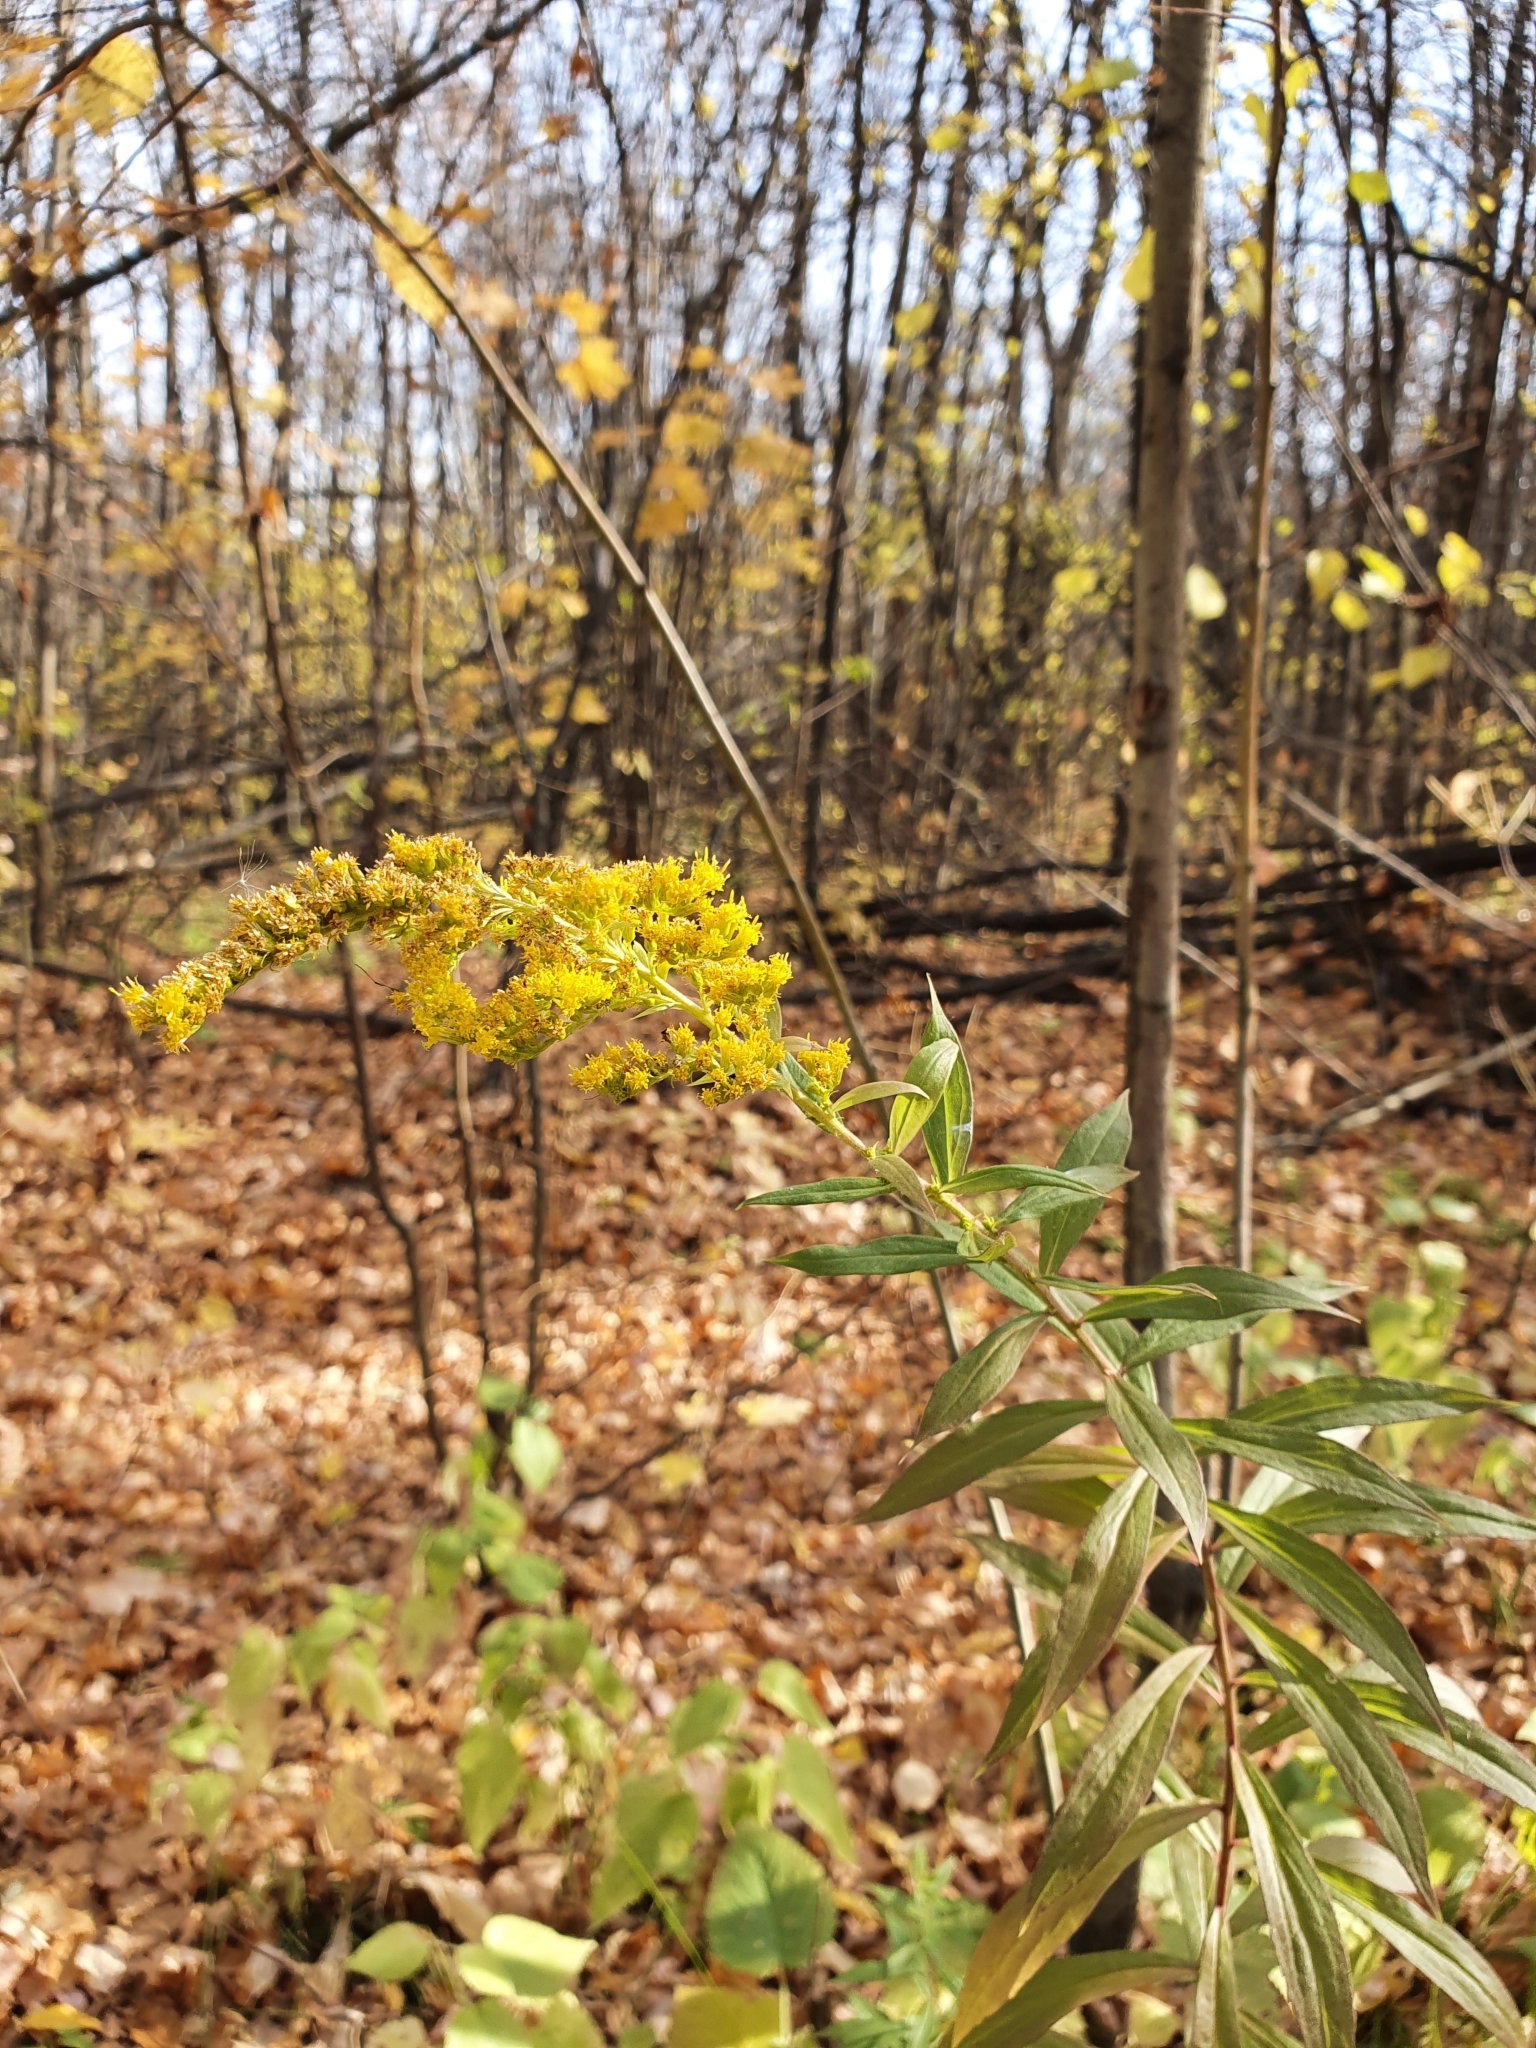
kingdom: Plantae
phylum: Tracheophyta
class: Magnoliopsida
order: Asterales
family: Asteraceae
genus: Solidago
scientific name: Solidago canadensis
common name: Canada goldenrod
